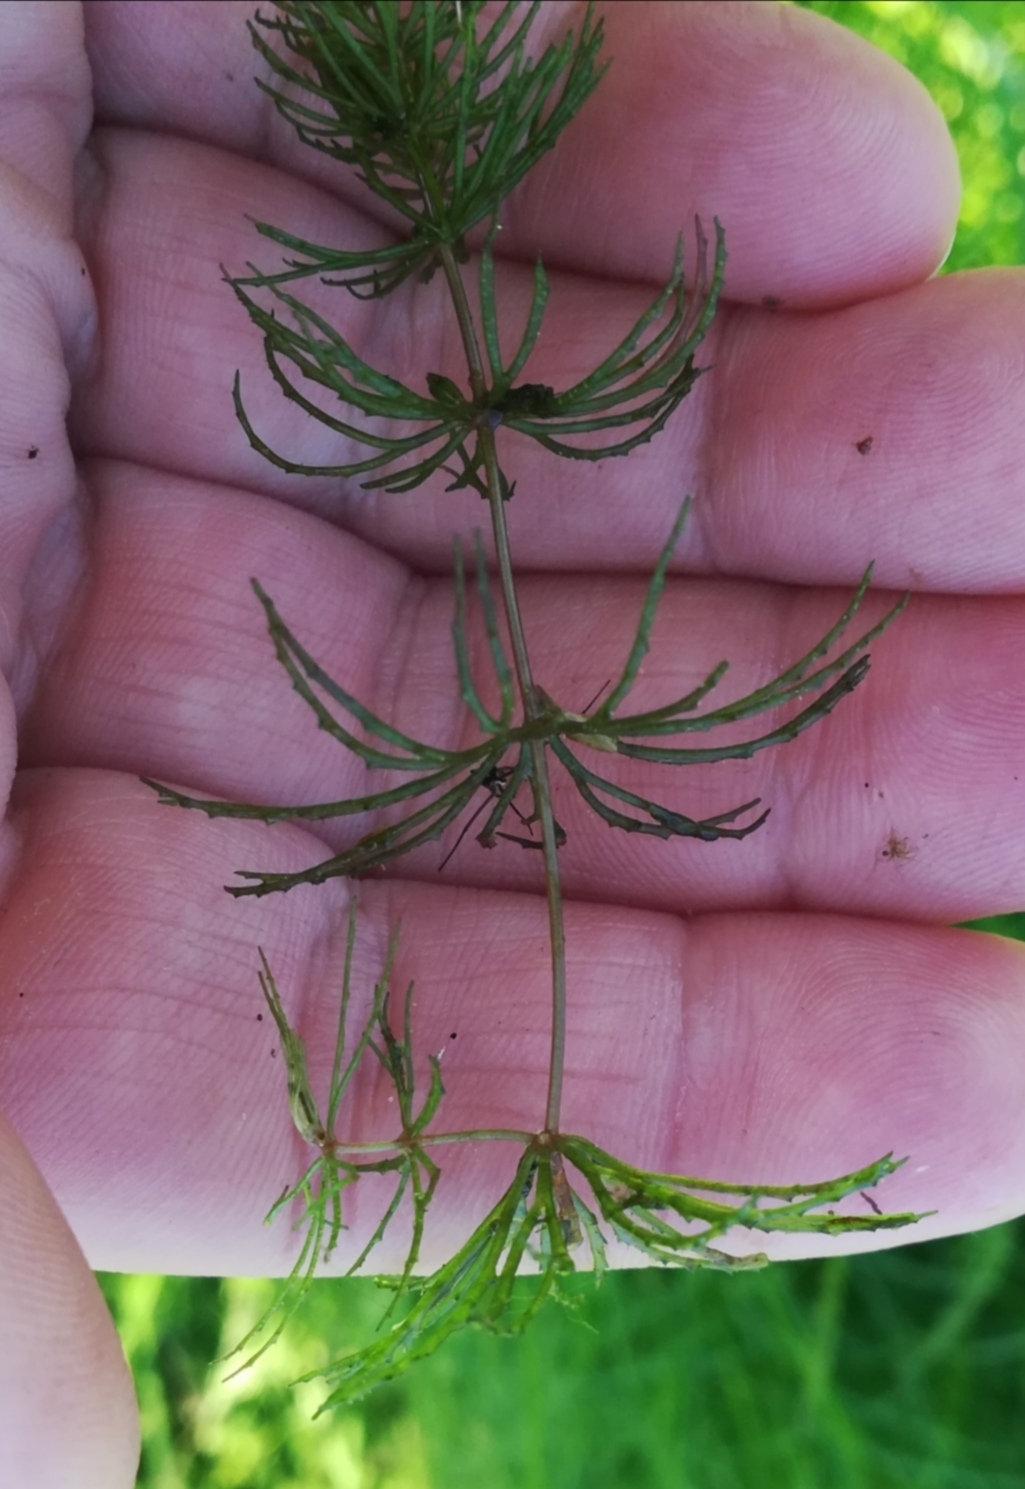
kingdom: Plantae
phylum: Tracheophyta
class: Magnoliopsida
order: Ceratophyllales
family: Ceratophyllaceae
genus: Ceratophyllum
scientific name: Ceratophyllum demersum
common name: Rigid hornwort
